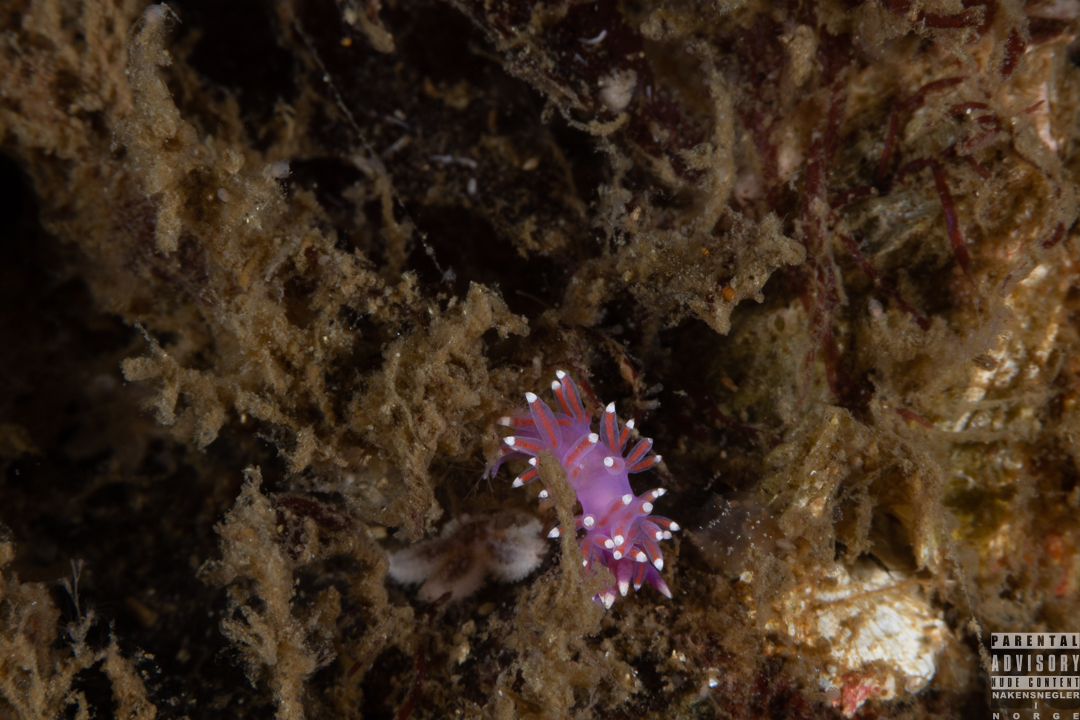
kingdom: Animalia
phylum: Mollusca
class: Gastropoda
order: Nudibranchia
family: Flabellinidae
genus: Edmundsella
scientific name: Edmundsella pedata
